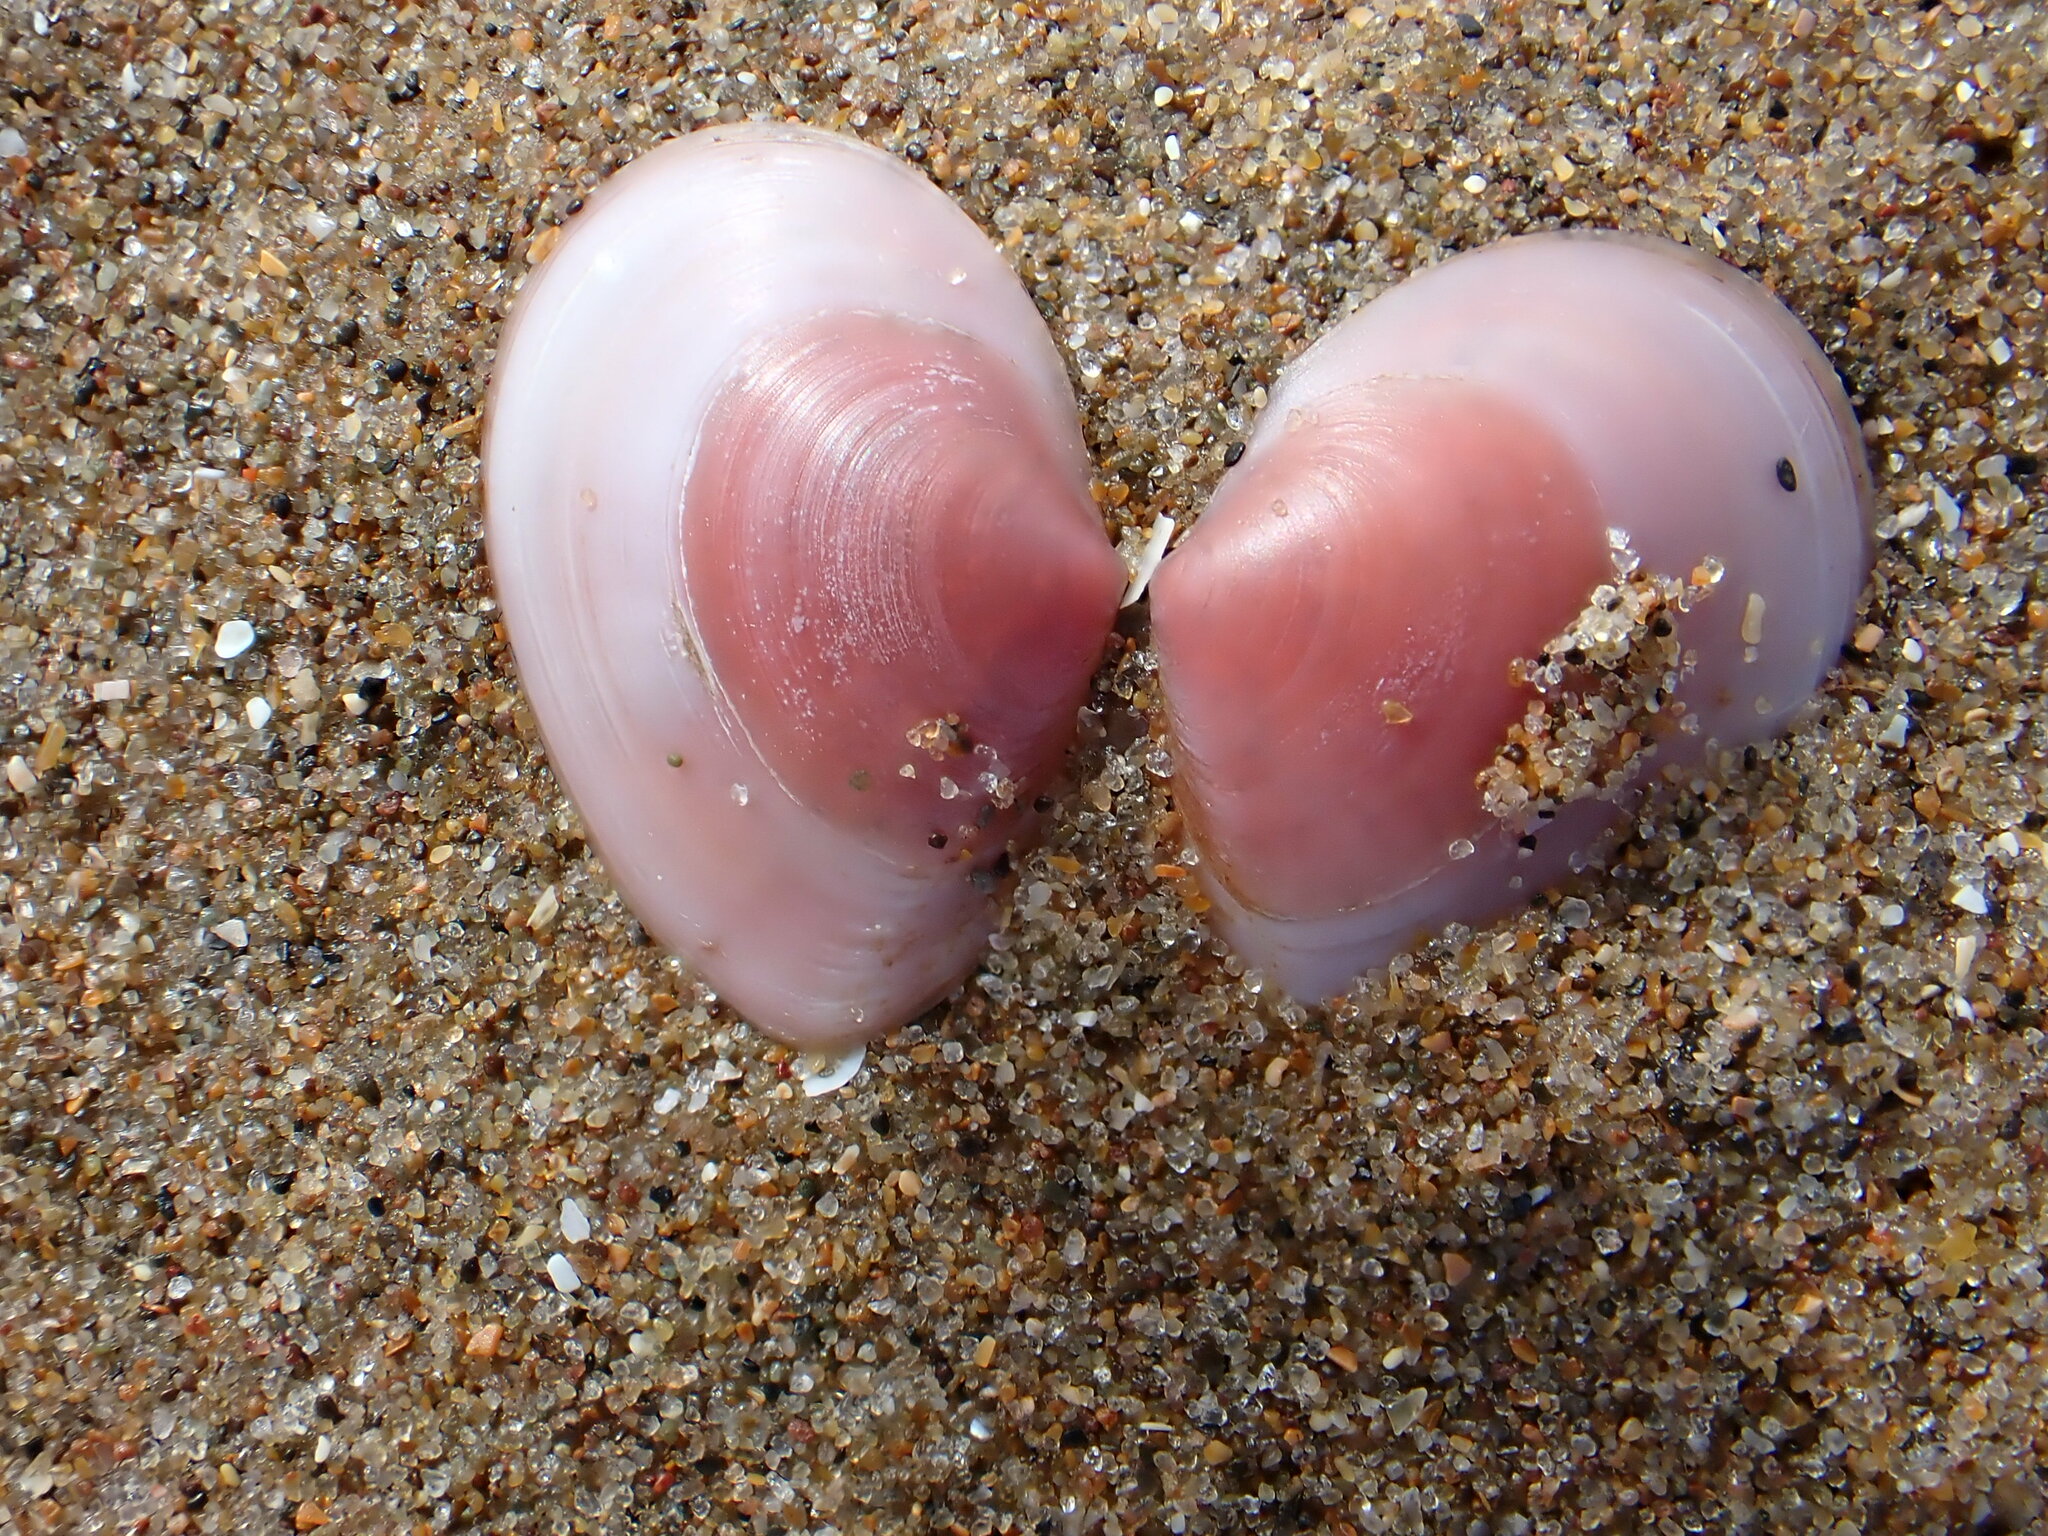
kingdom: Animalia
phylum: Mollusca
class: Bivalvia
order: Cardiida
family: Tellinidae
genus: Macoma
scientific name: Macoma balthica
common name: Baltic tellin
